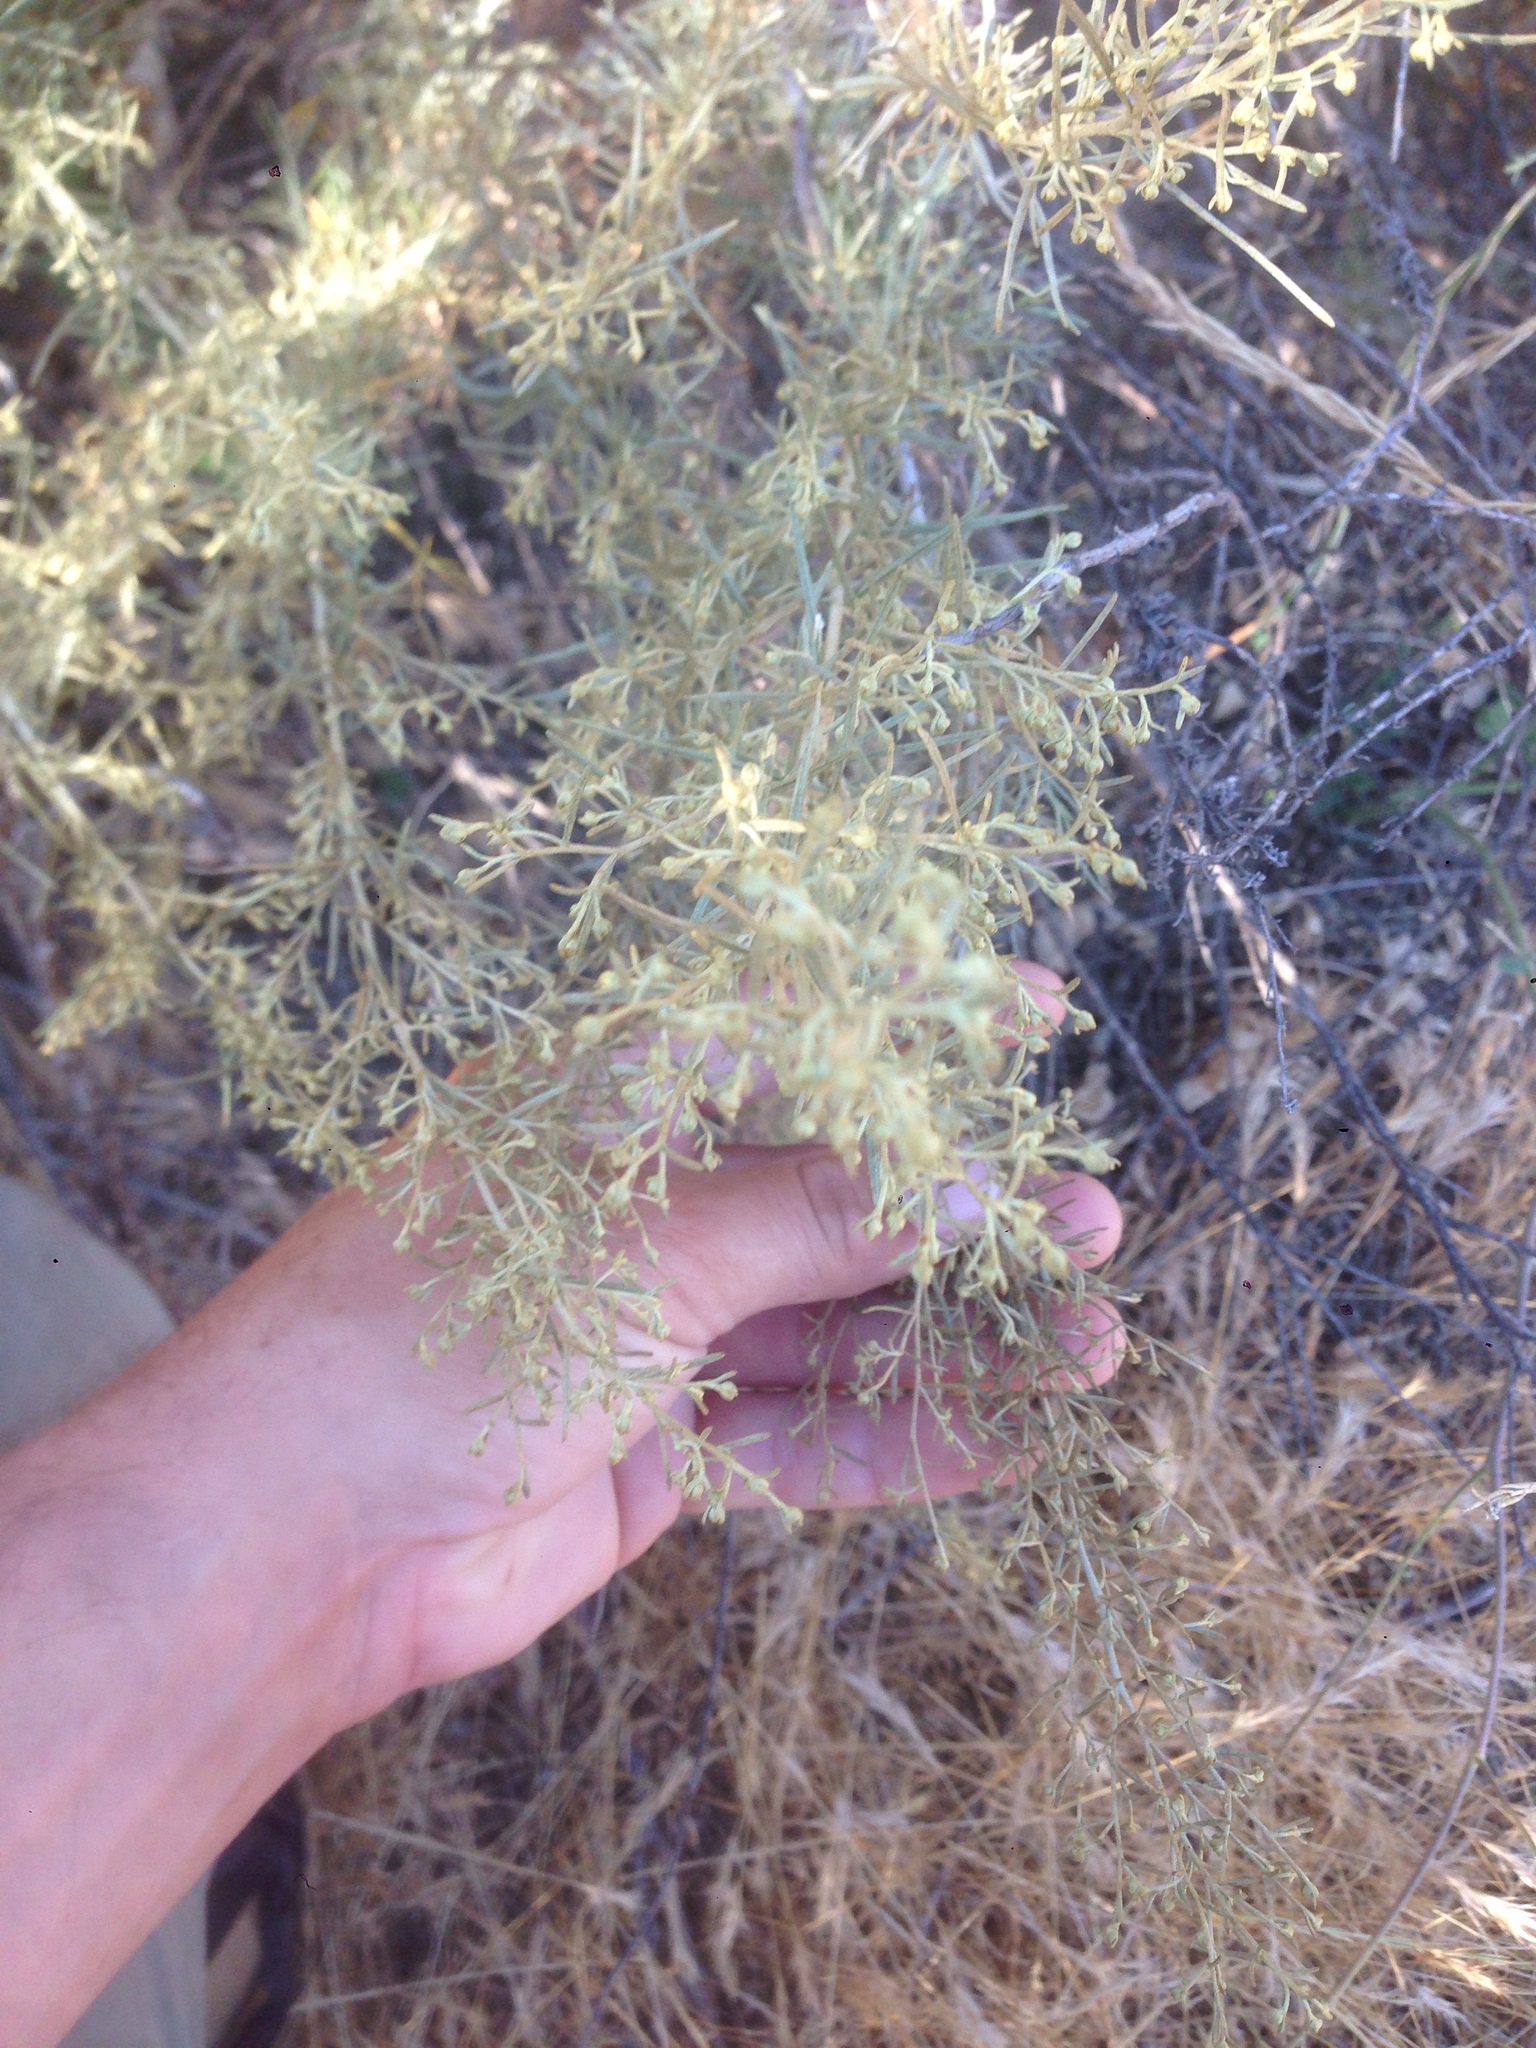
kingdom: Plantae
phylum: Tracheophyta
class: Magnoliopsida
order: Asterales
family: Asteraceae
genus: Artemisia
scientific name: Artemisia californica
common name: California sagebrush
